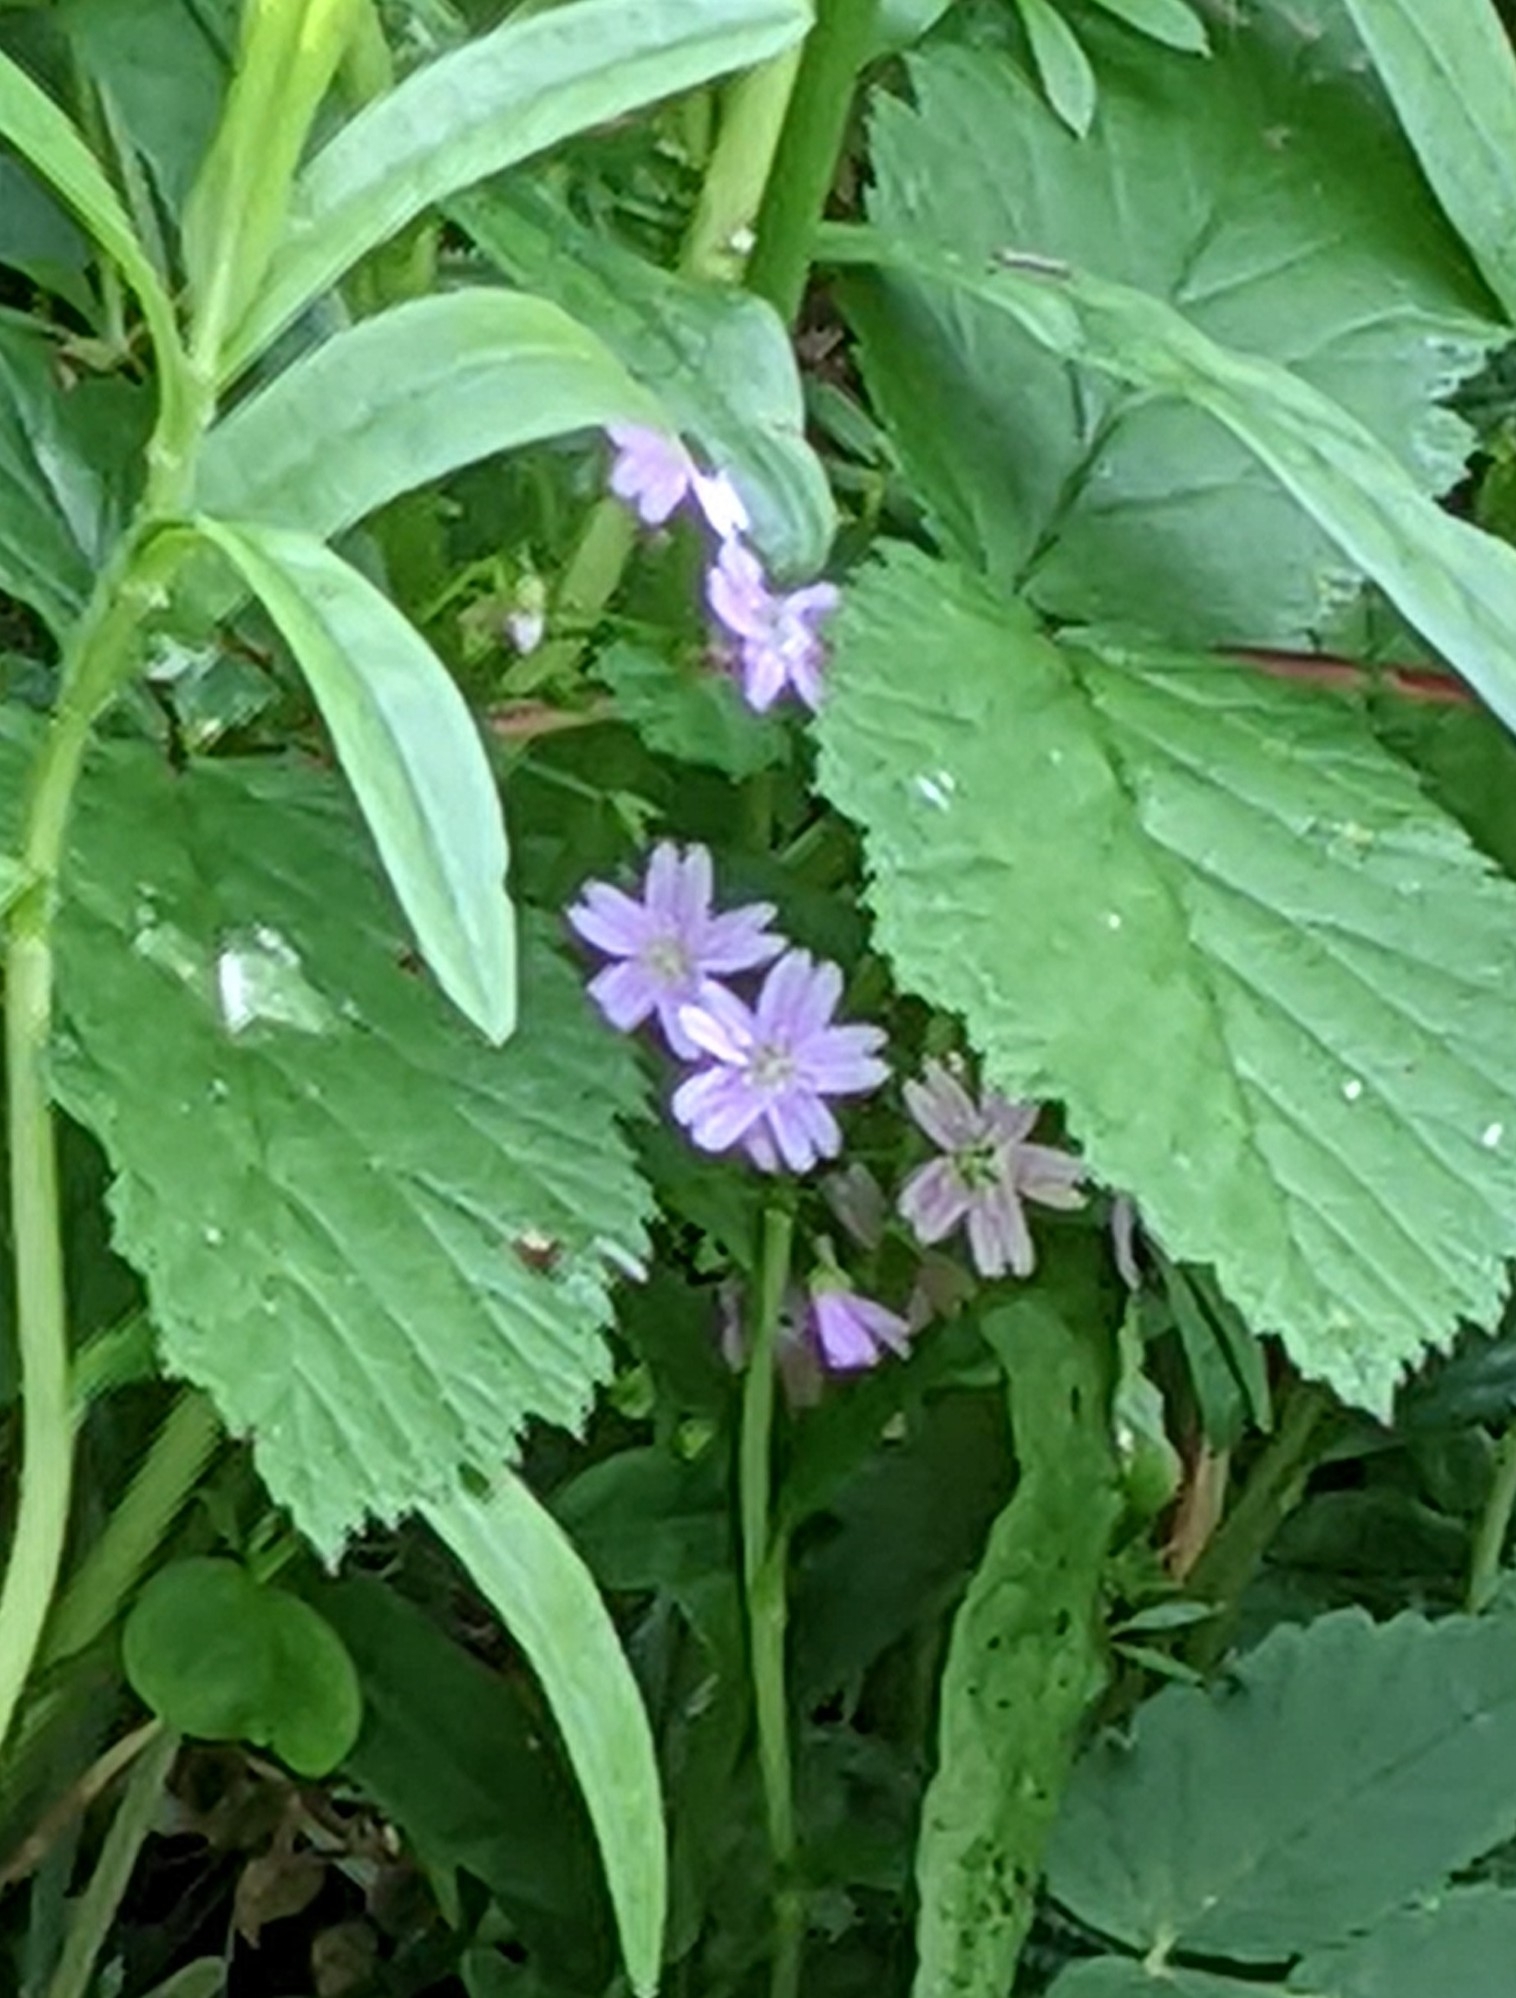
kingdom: Plantae
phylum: Tracheophyta
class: Magnoliopsida
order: Caryophyllales
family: Montiaceae
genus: Claytonia
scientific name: Claytonia sibirica
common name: Pink purslane
